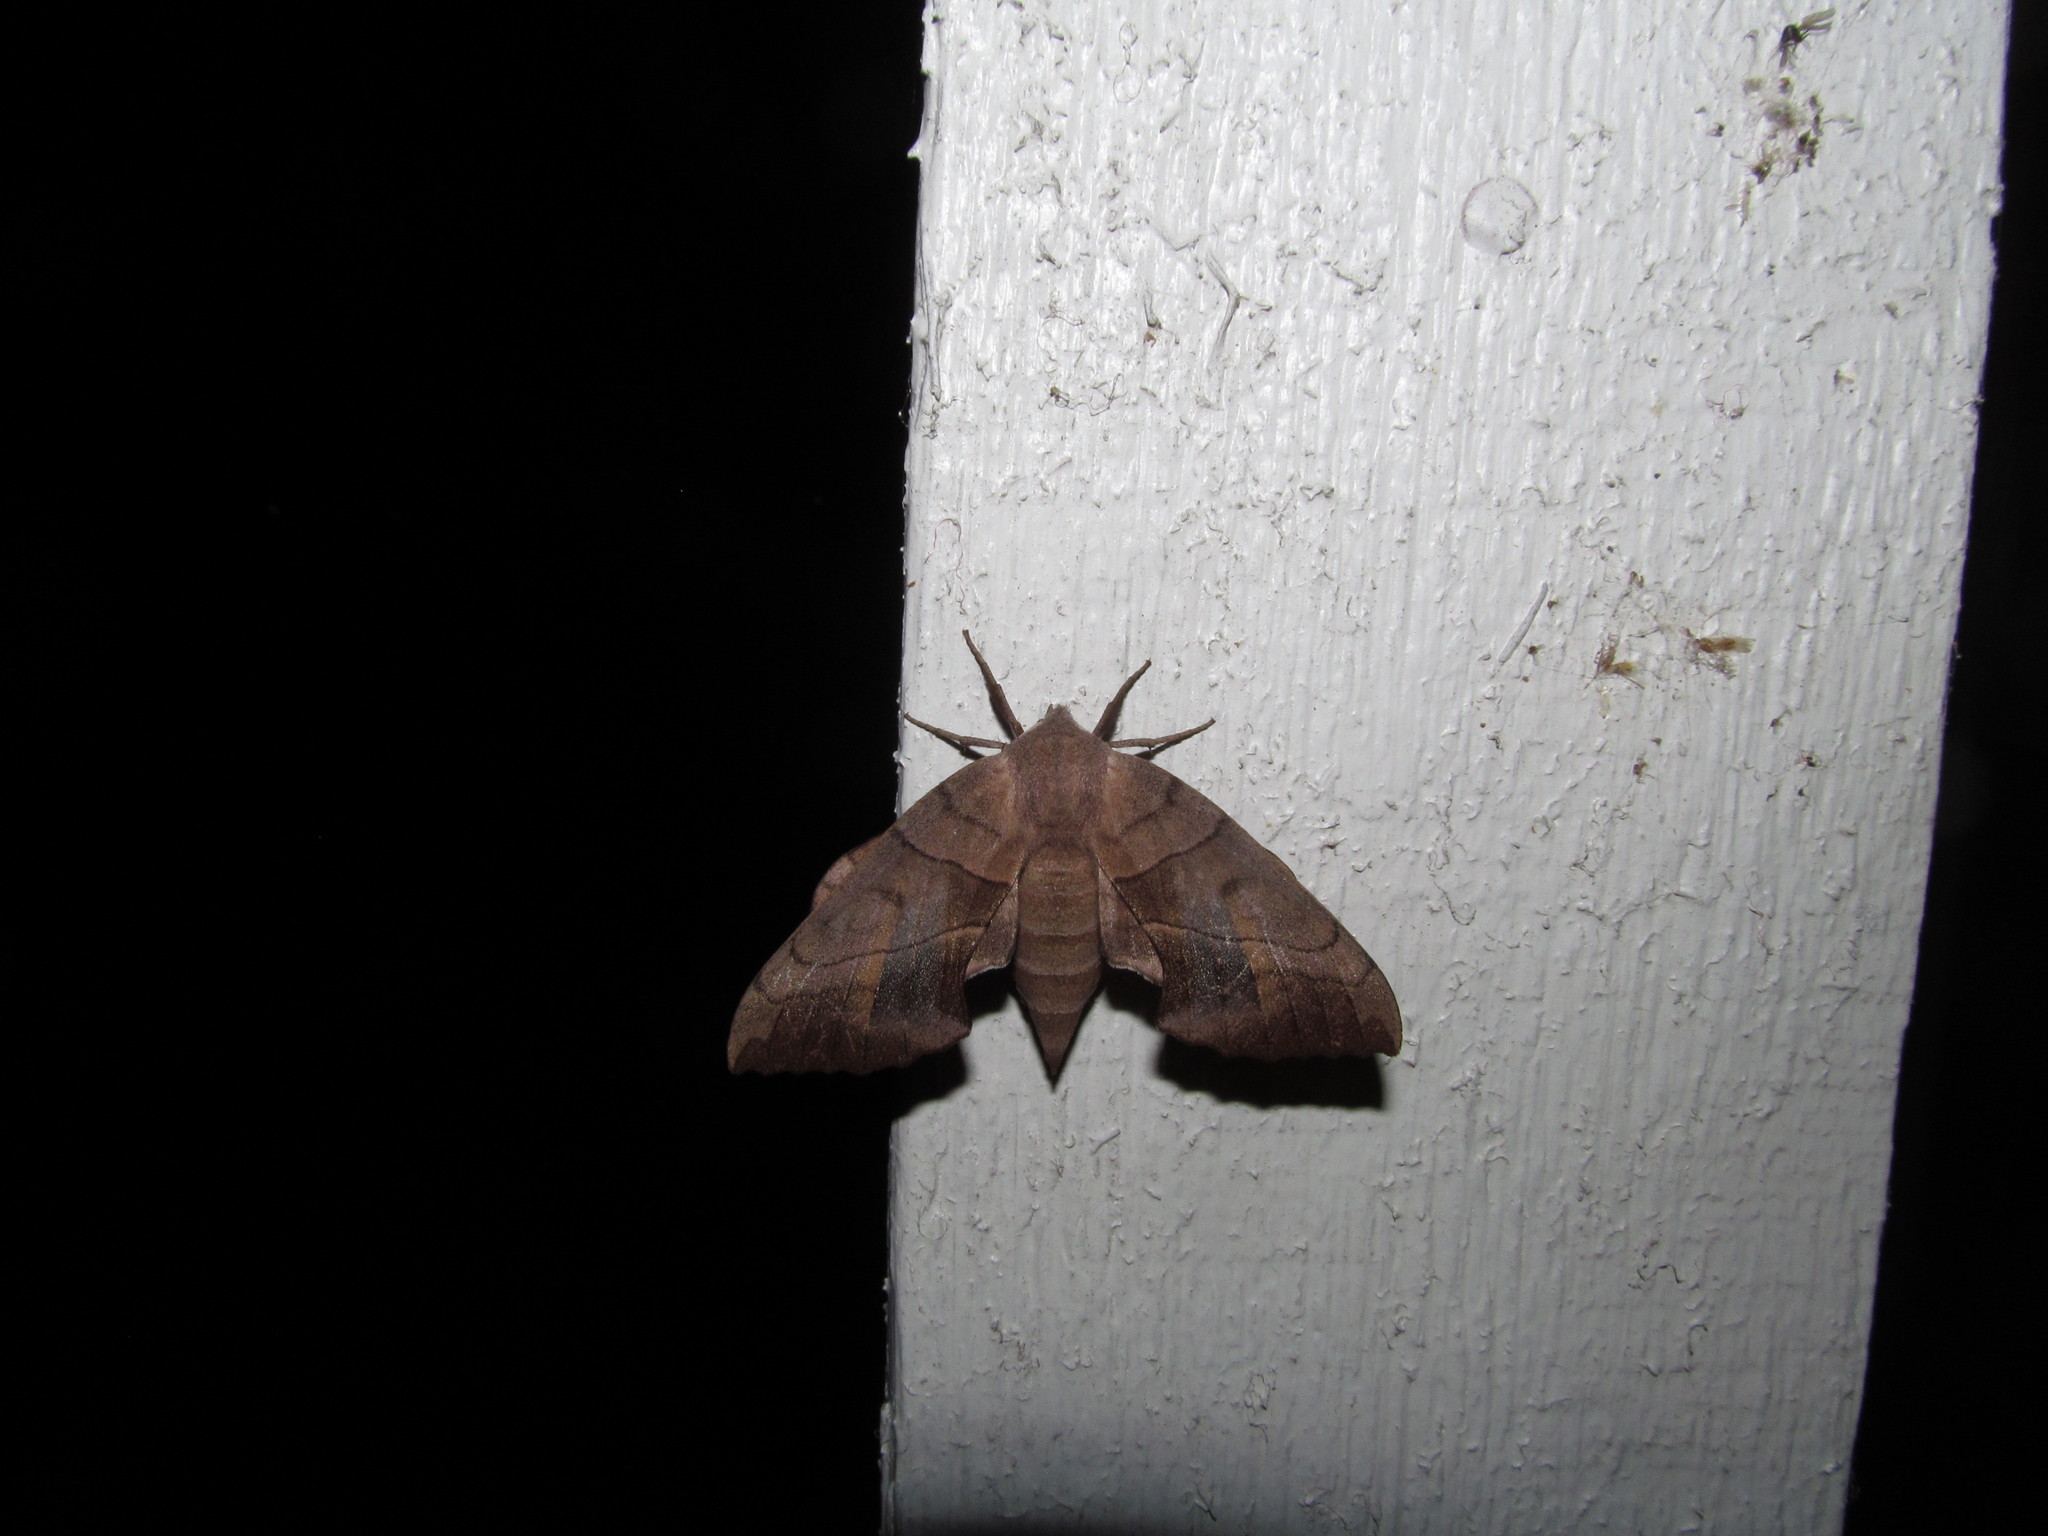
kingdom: Animalia
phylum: Arthropoda
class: Insecta
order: Lepidoptera
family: Sphingidae
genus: Amorpha
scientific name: Amorpha juglandis
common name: Walnut sphinx
